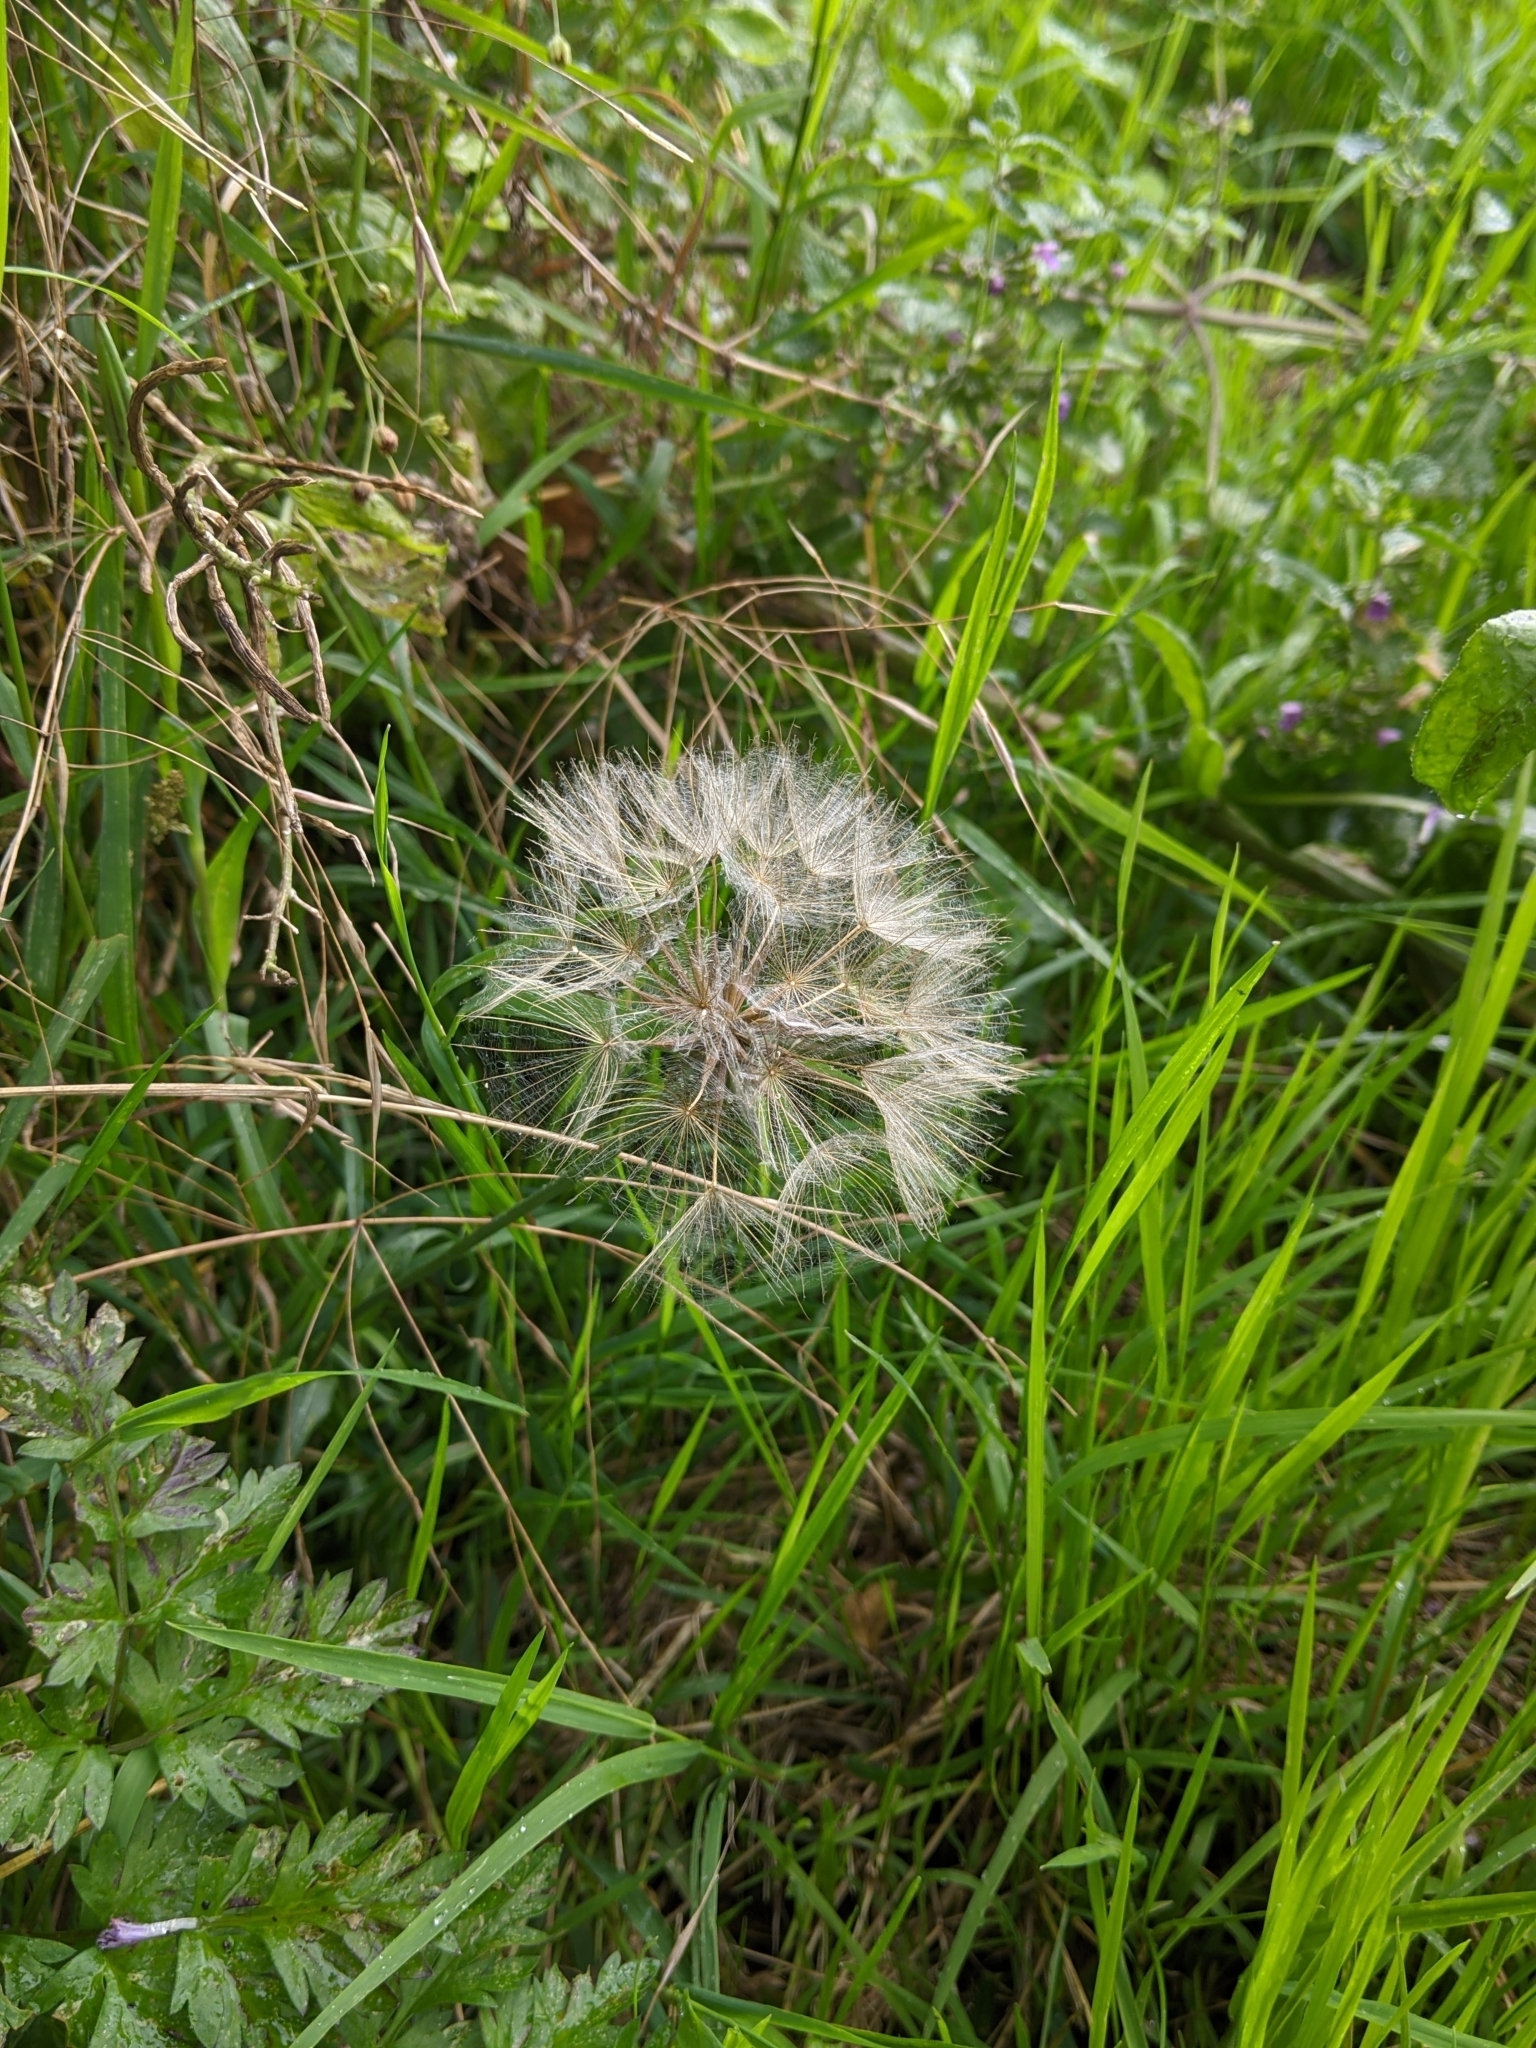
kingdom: Plantae
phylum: Tracheophyta
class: Magnoliopsida
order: Asterales
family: Asteraceae
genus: Tragopogon
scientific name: Tragopogon pratensis
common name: Goat's-beard
